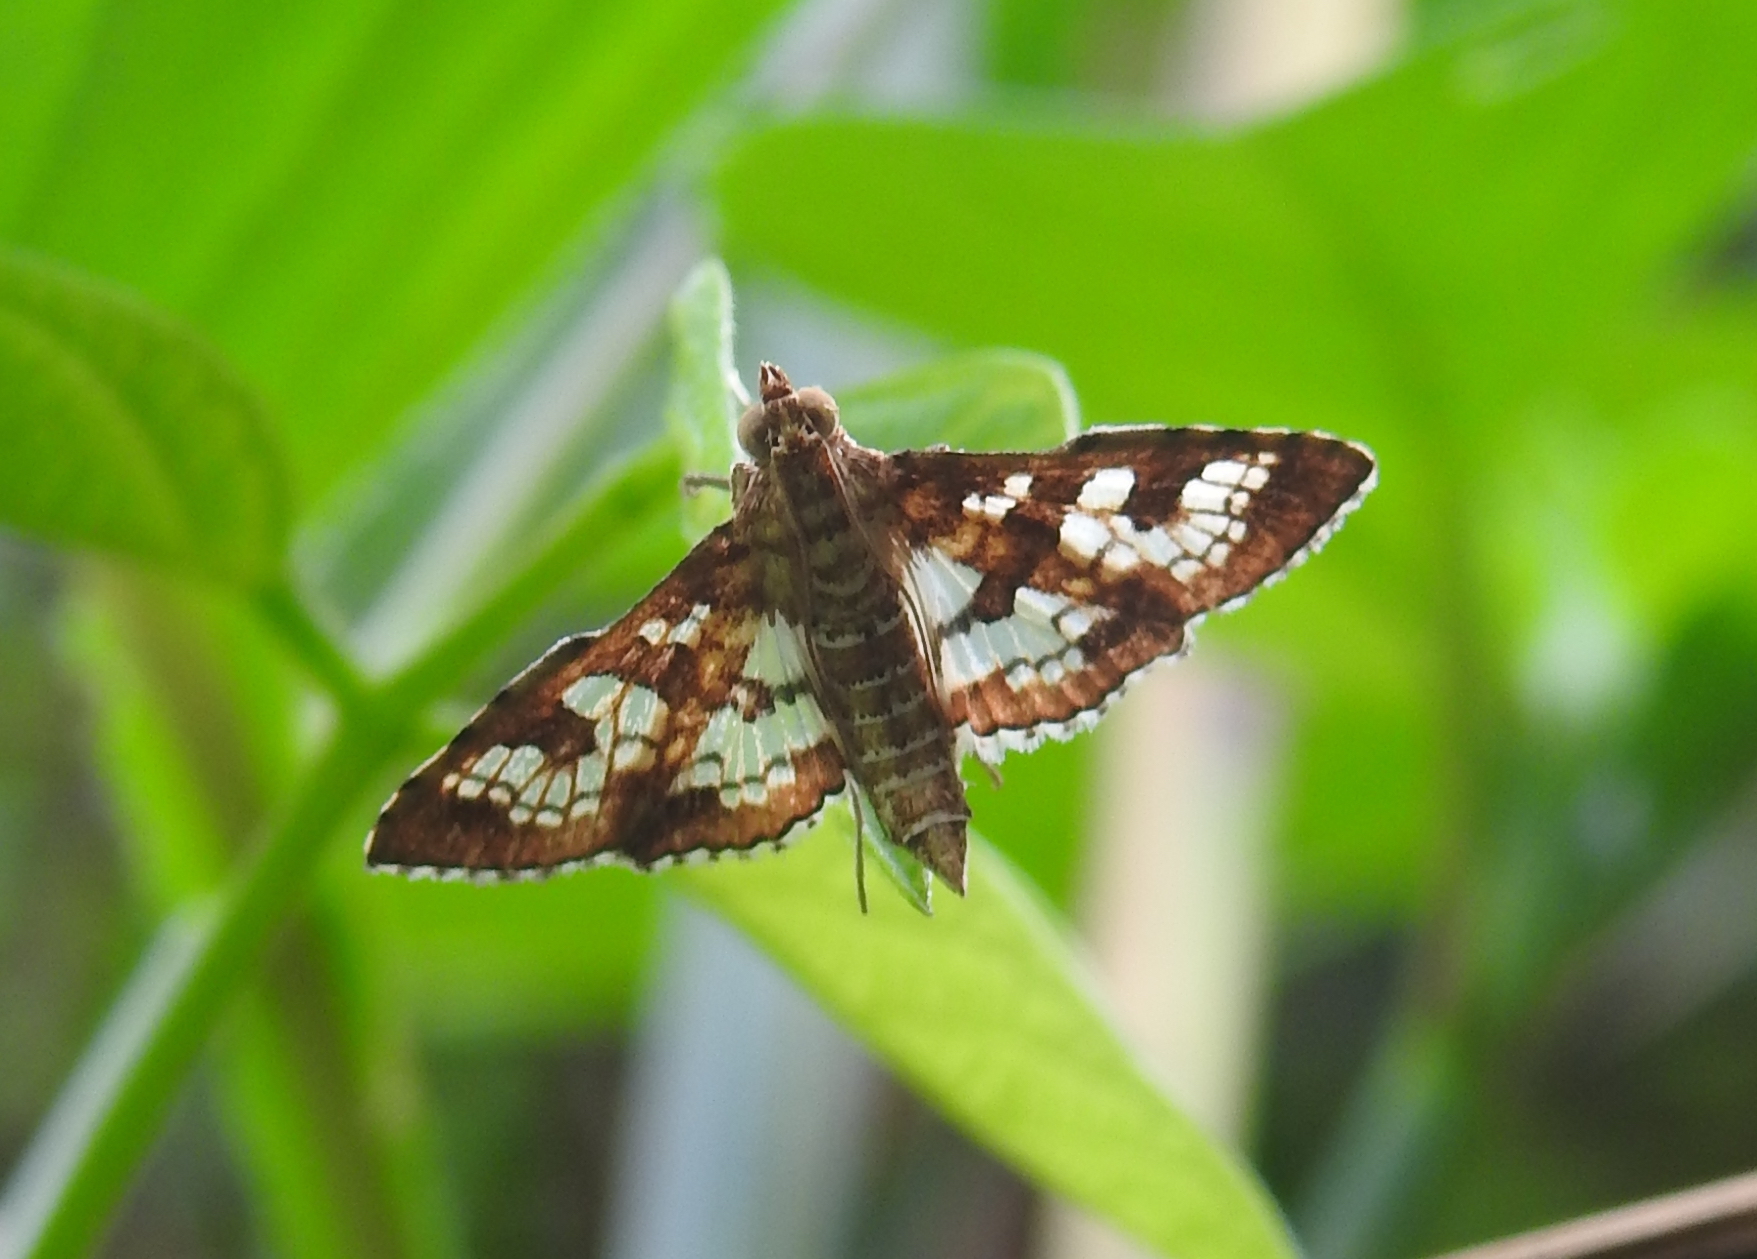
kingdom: Animalia
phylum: Arthropoda
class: Insecta
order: Lepidoptera
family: Crambidae
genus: Sameodes
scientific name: Sameodes cancellalis
